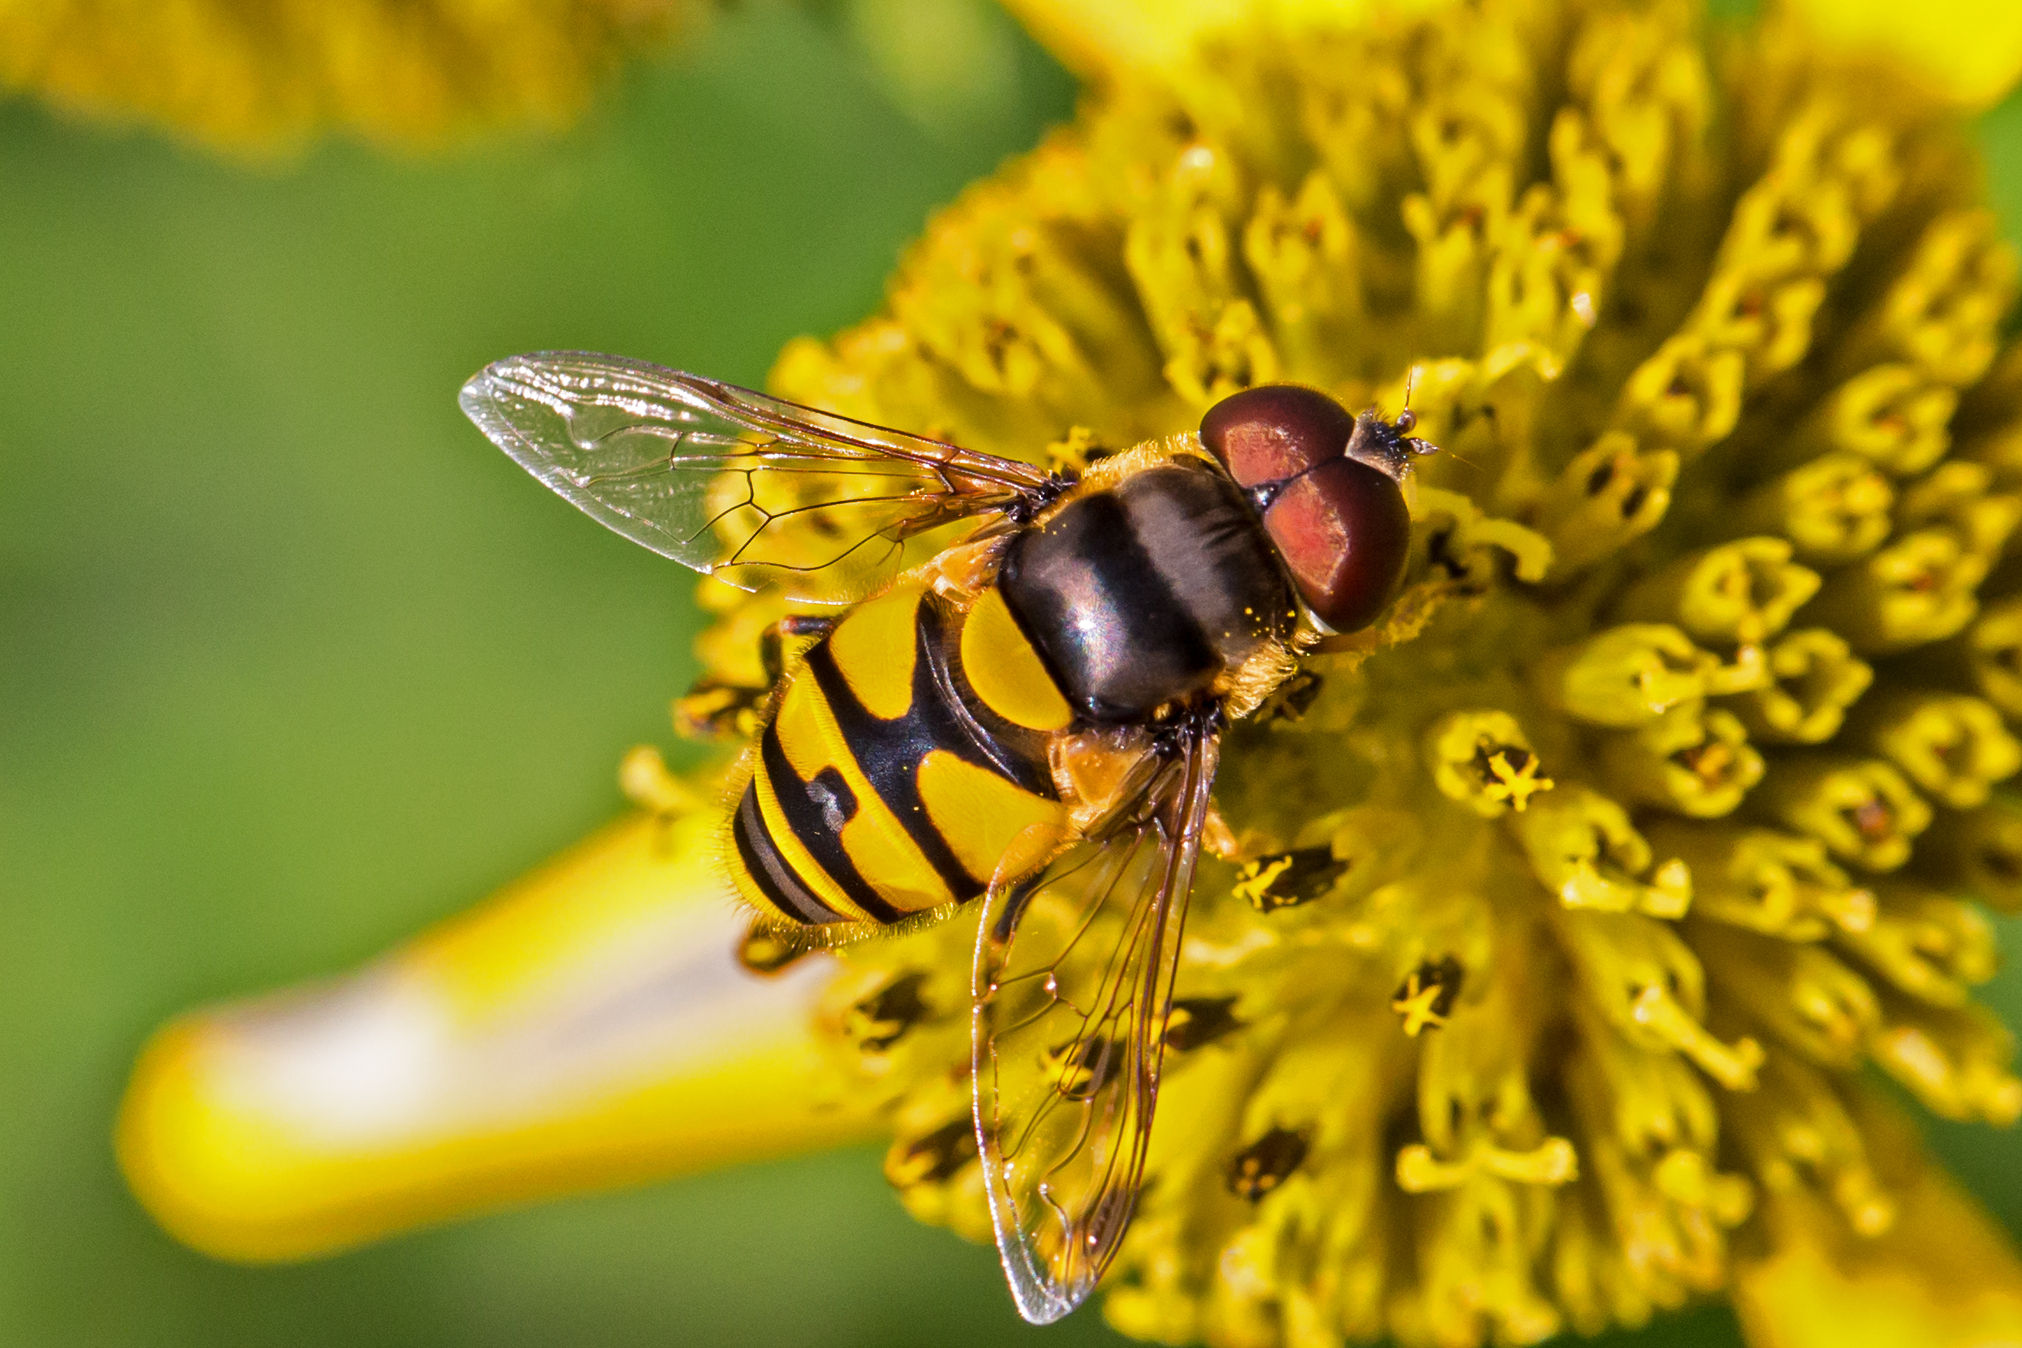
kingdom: Animalia
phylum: Arthropoda
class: Insecta
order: Diptera
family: Syrphidae
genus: Eristalis
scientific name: Eristalis transversa
